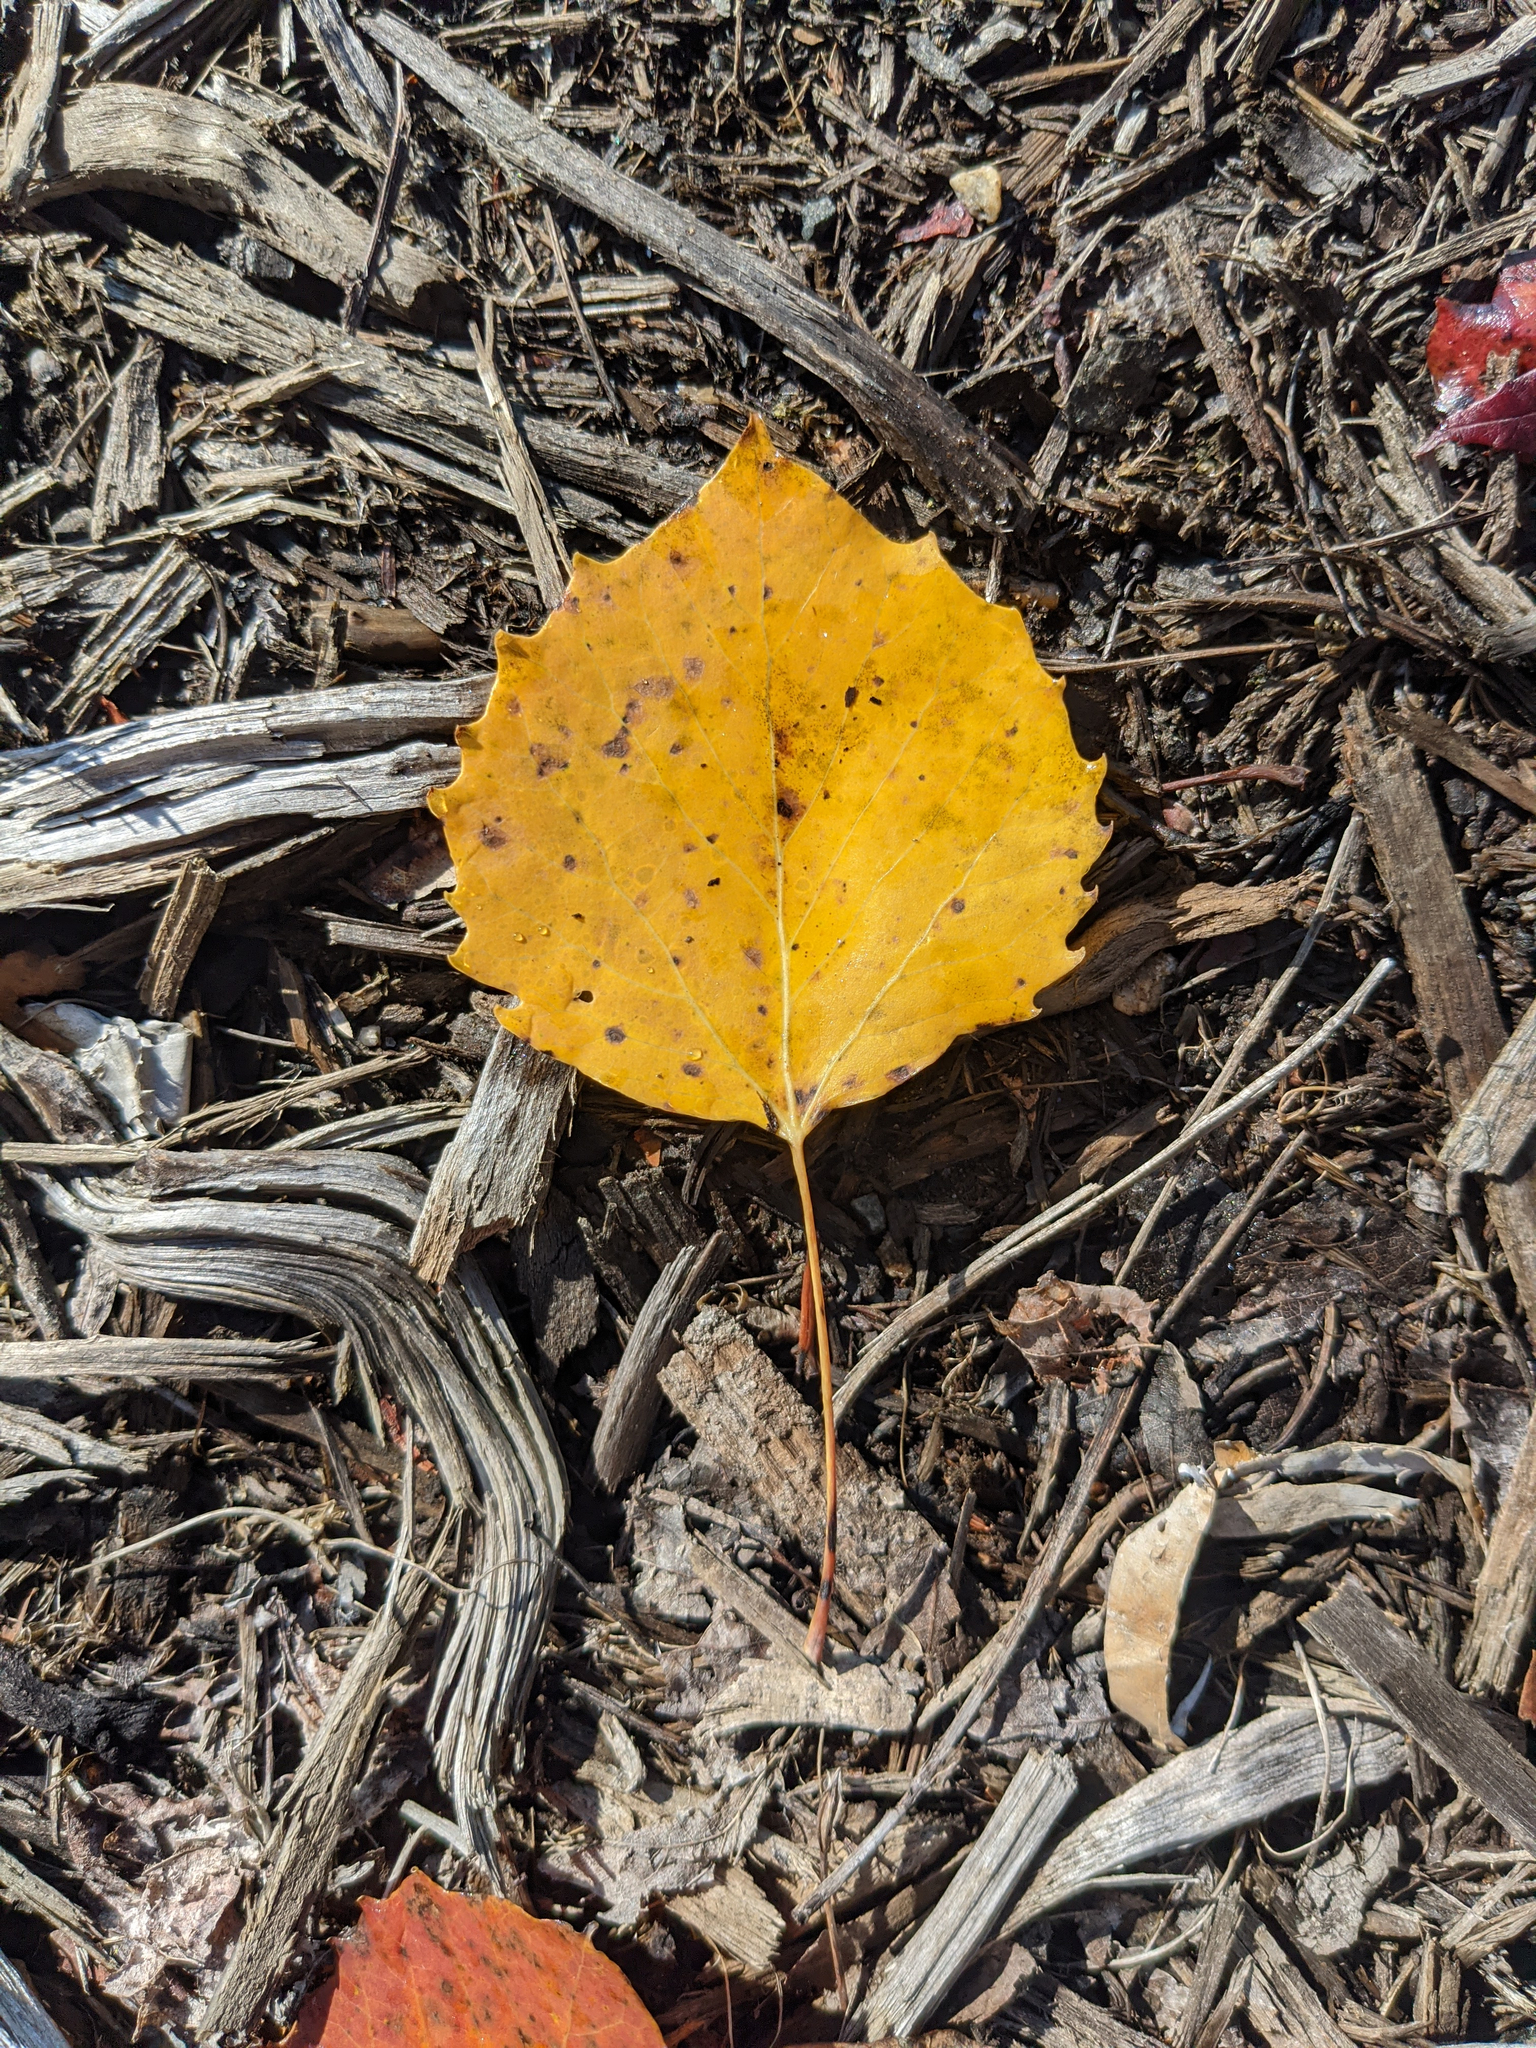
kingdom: Plantae
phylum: Tracheophyta
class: Magnoliopsida
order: Malpighiales
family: Salicaceae
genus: Populus
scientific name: Populus grandidentata
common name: Bigtooth aspen
